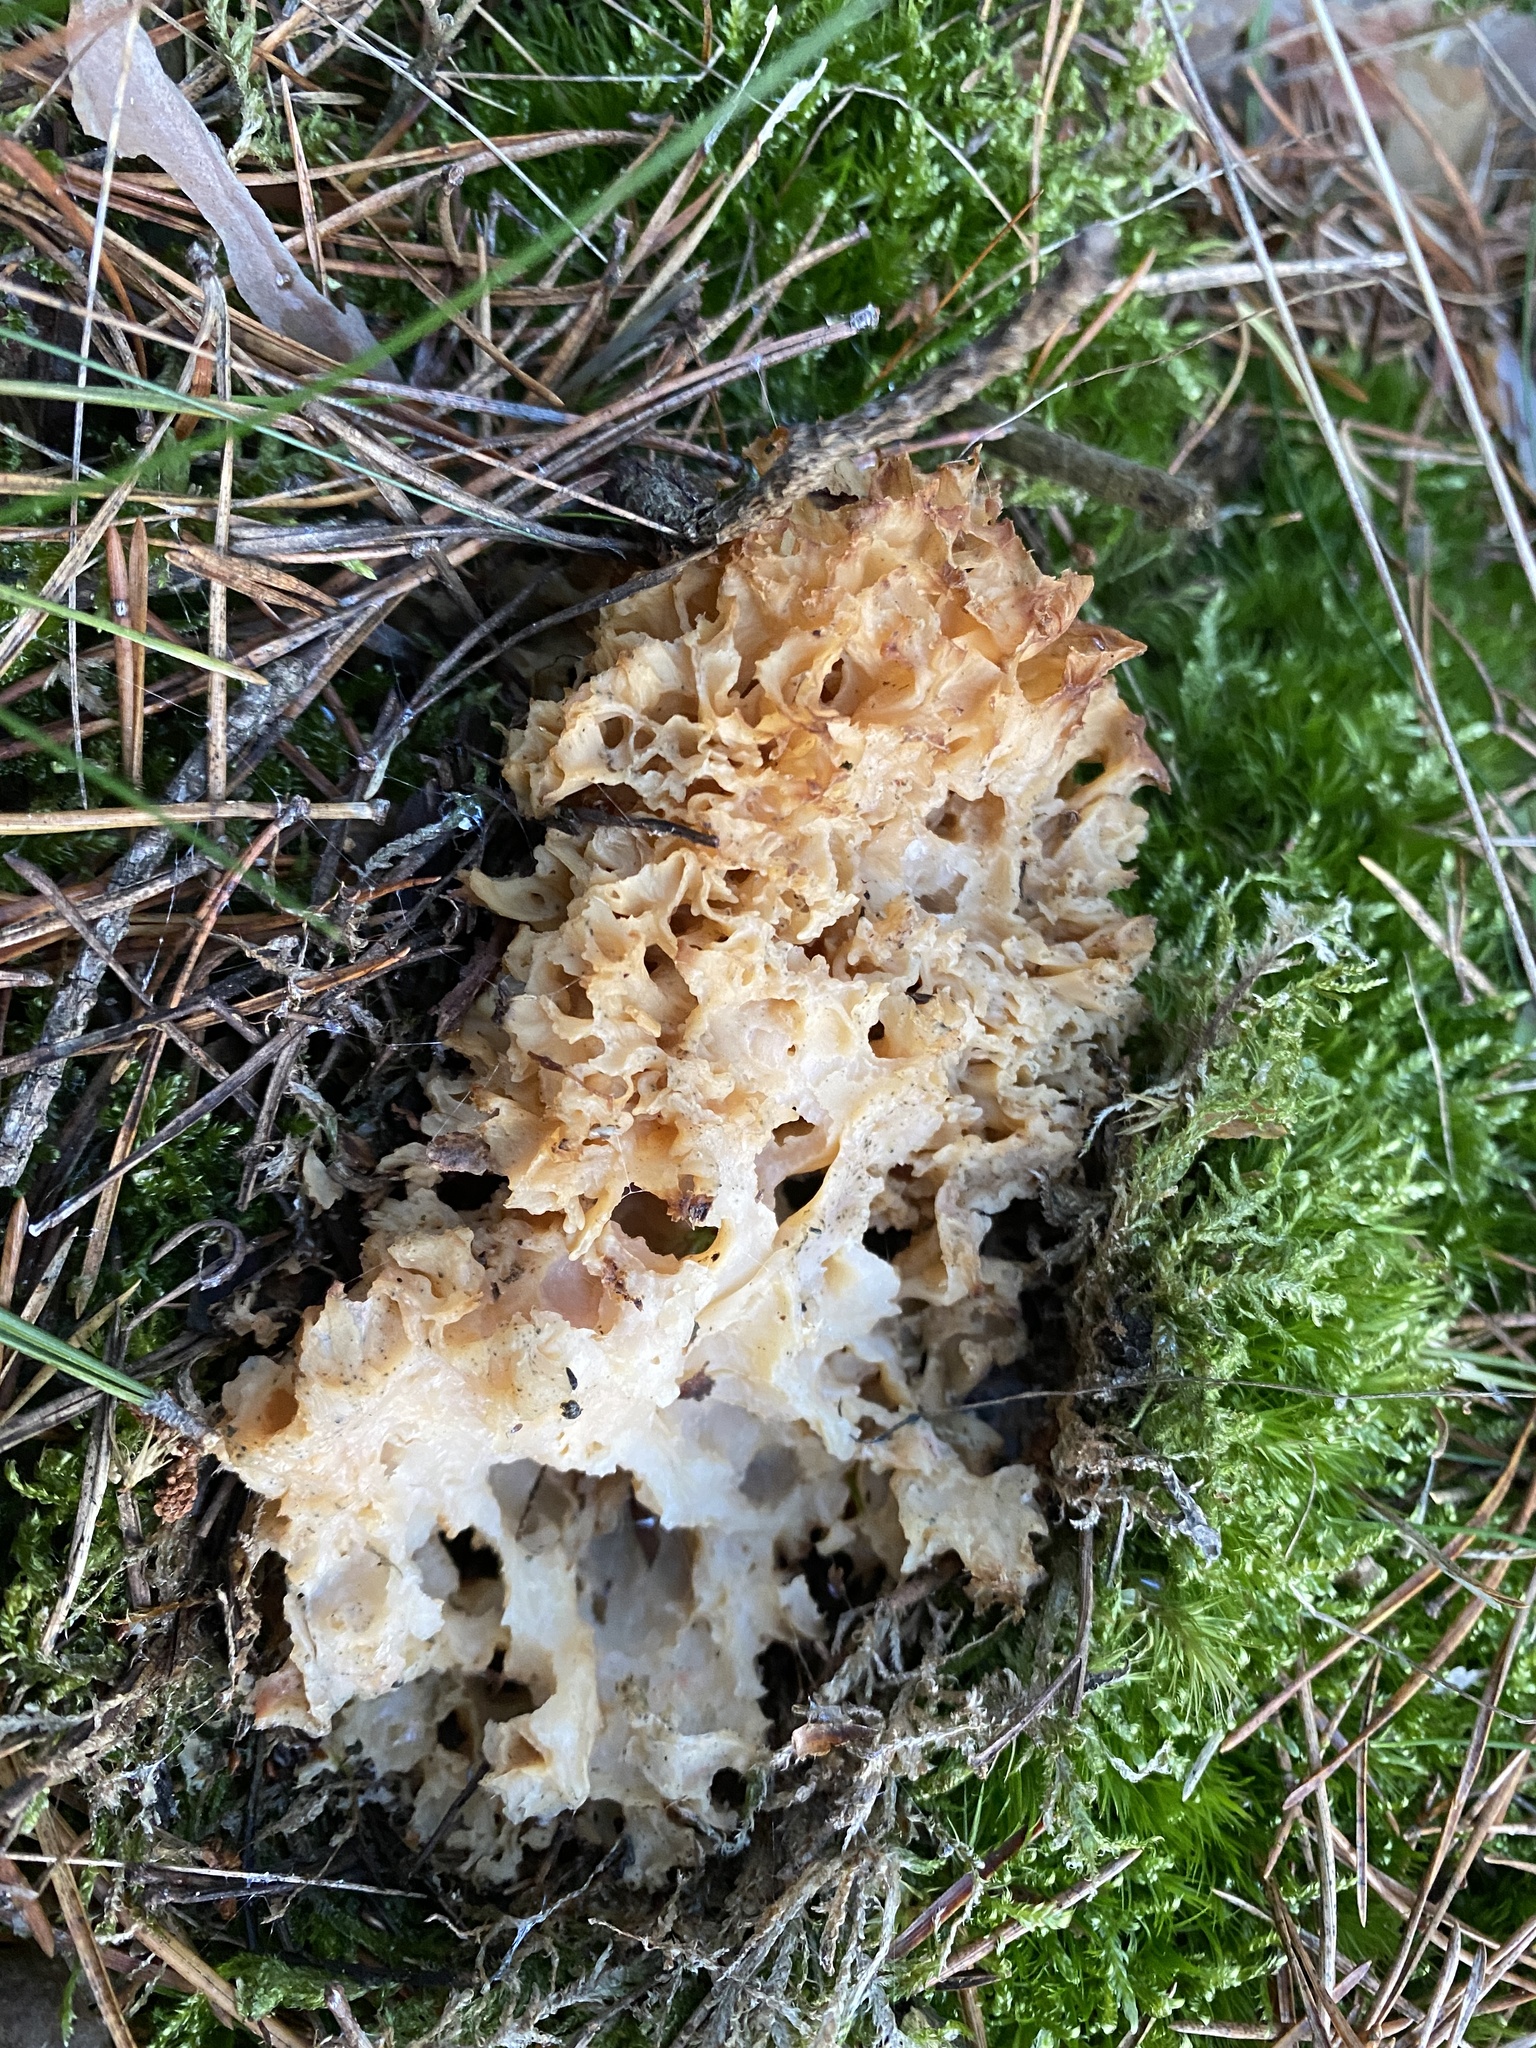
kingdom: Fungi
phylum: Basidiomycota
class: Agaricomycetes
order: Polyporales
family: Sparassidaceae
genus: Sparassis
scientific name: Sparassis crispa
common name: Brain fungus
